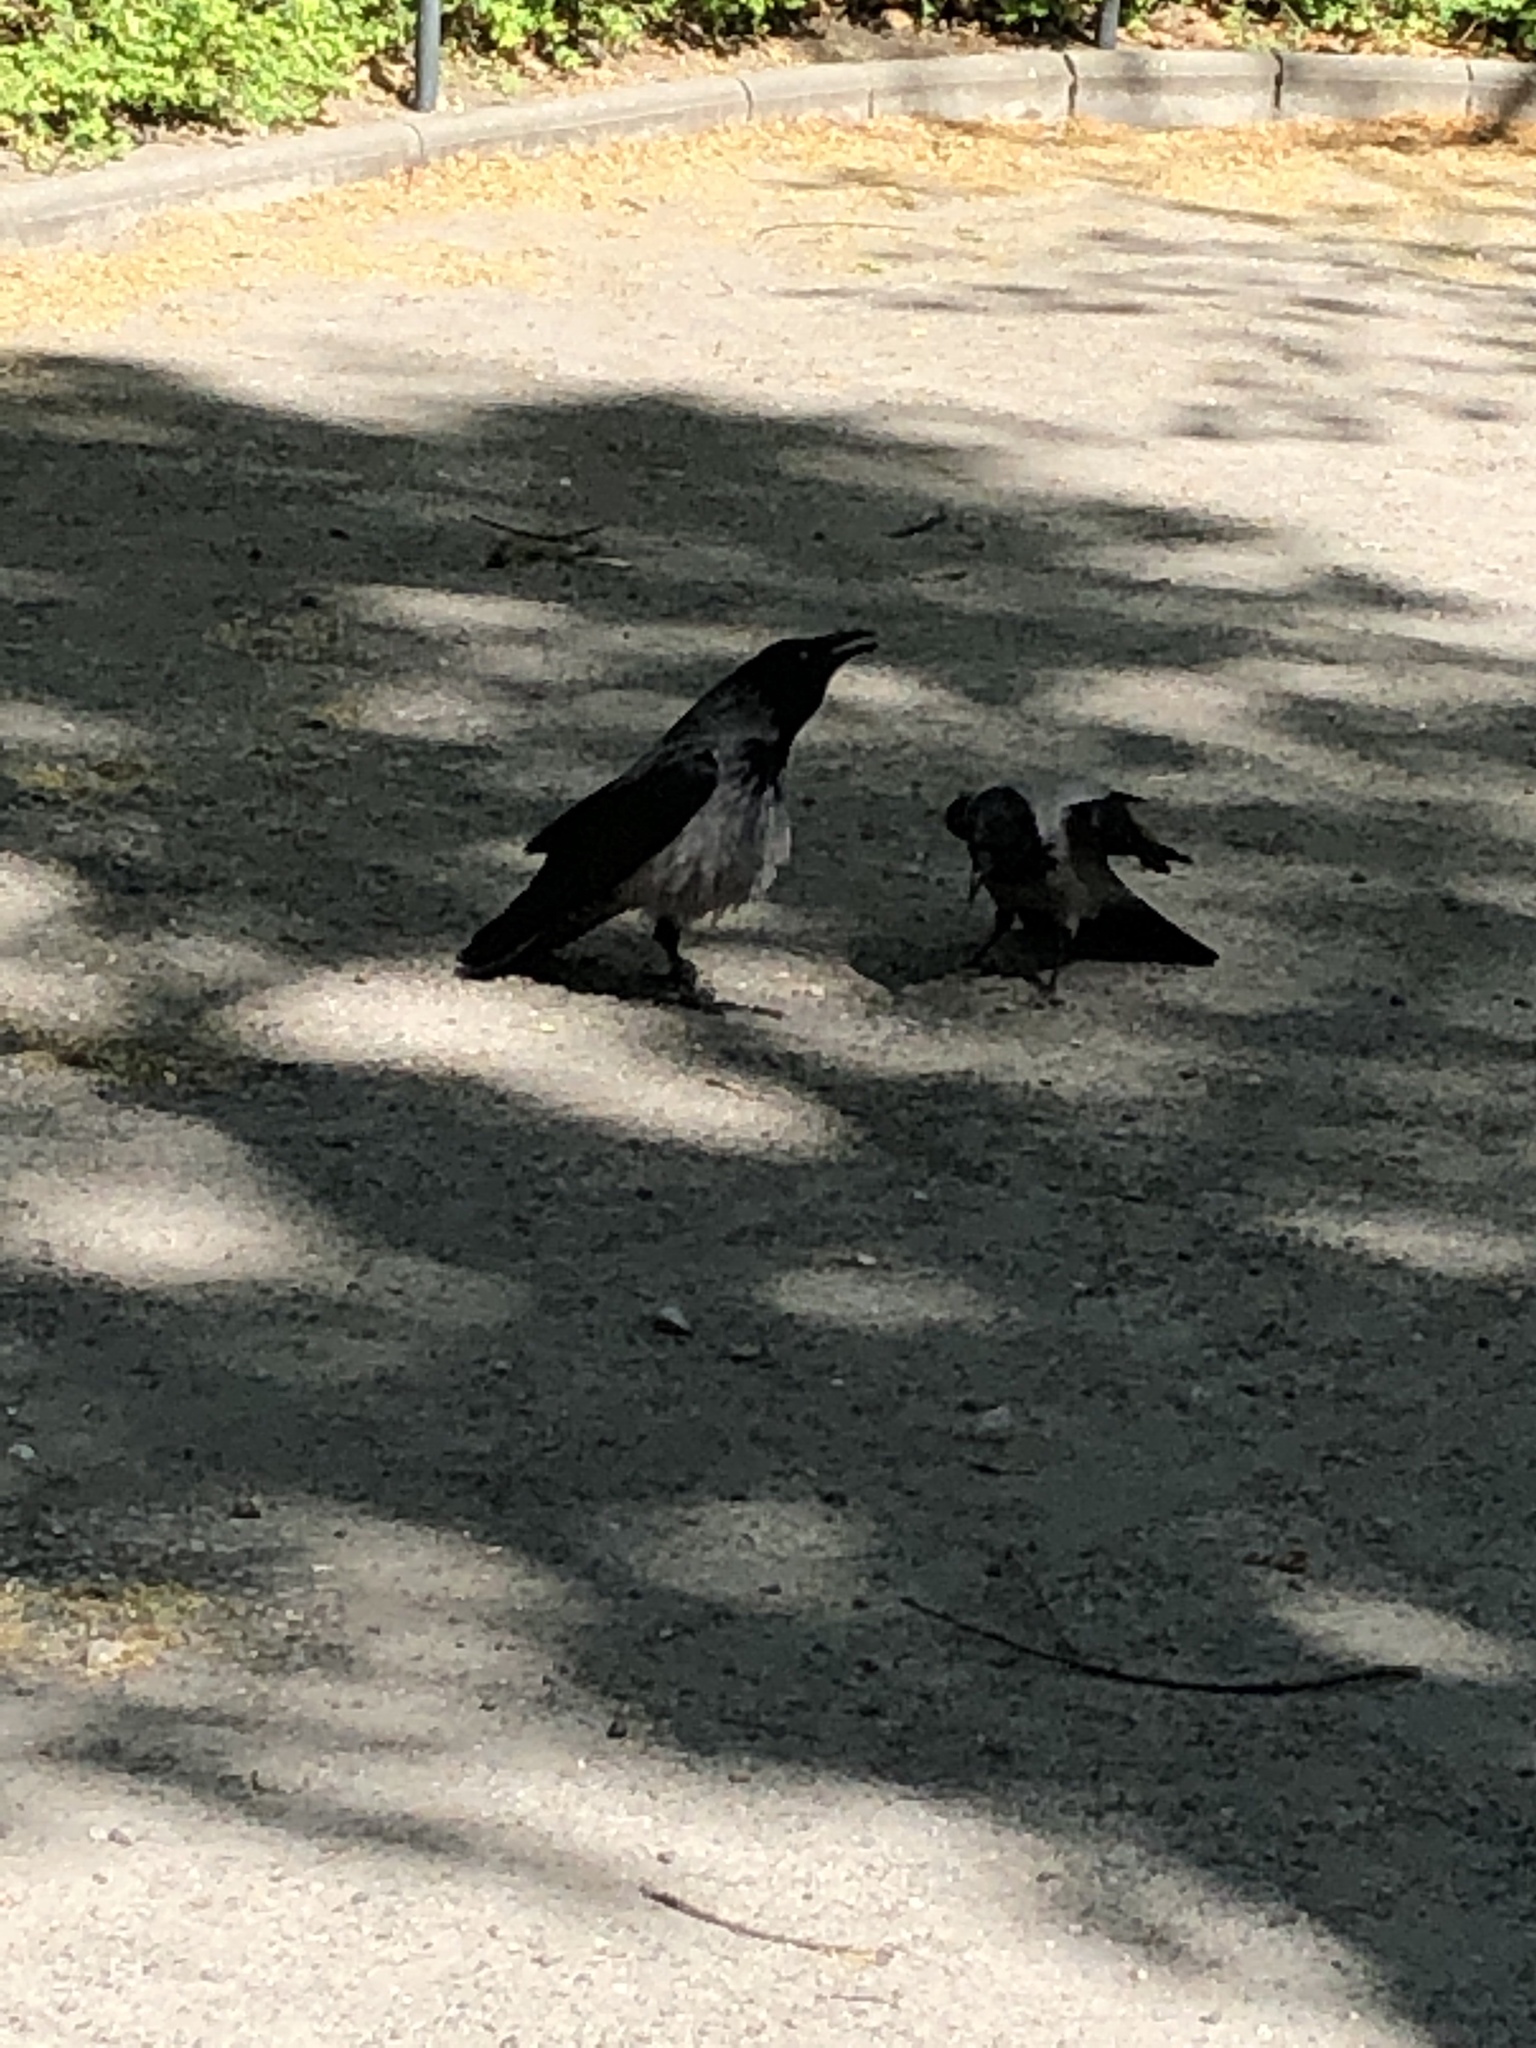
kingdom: Animalia
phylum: Chordata
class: Aves
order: Passeriformes
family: Corvidae
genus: Corvus
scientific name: Corvus cornix
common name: Hooded crow
